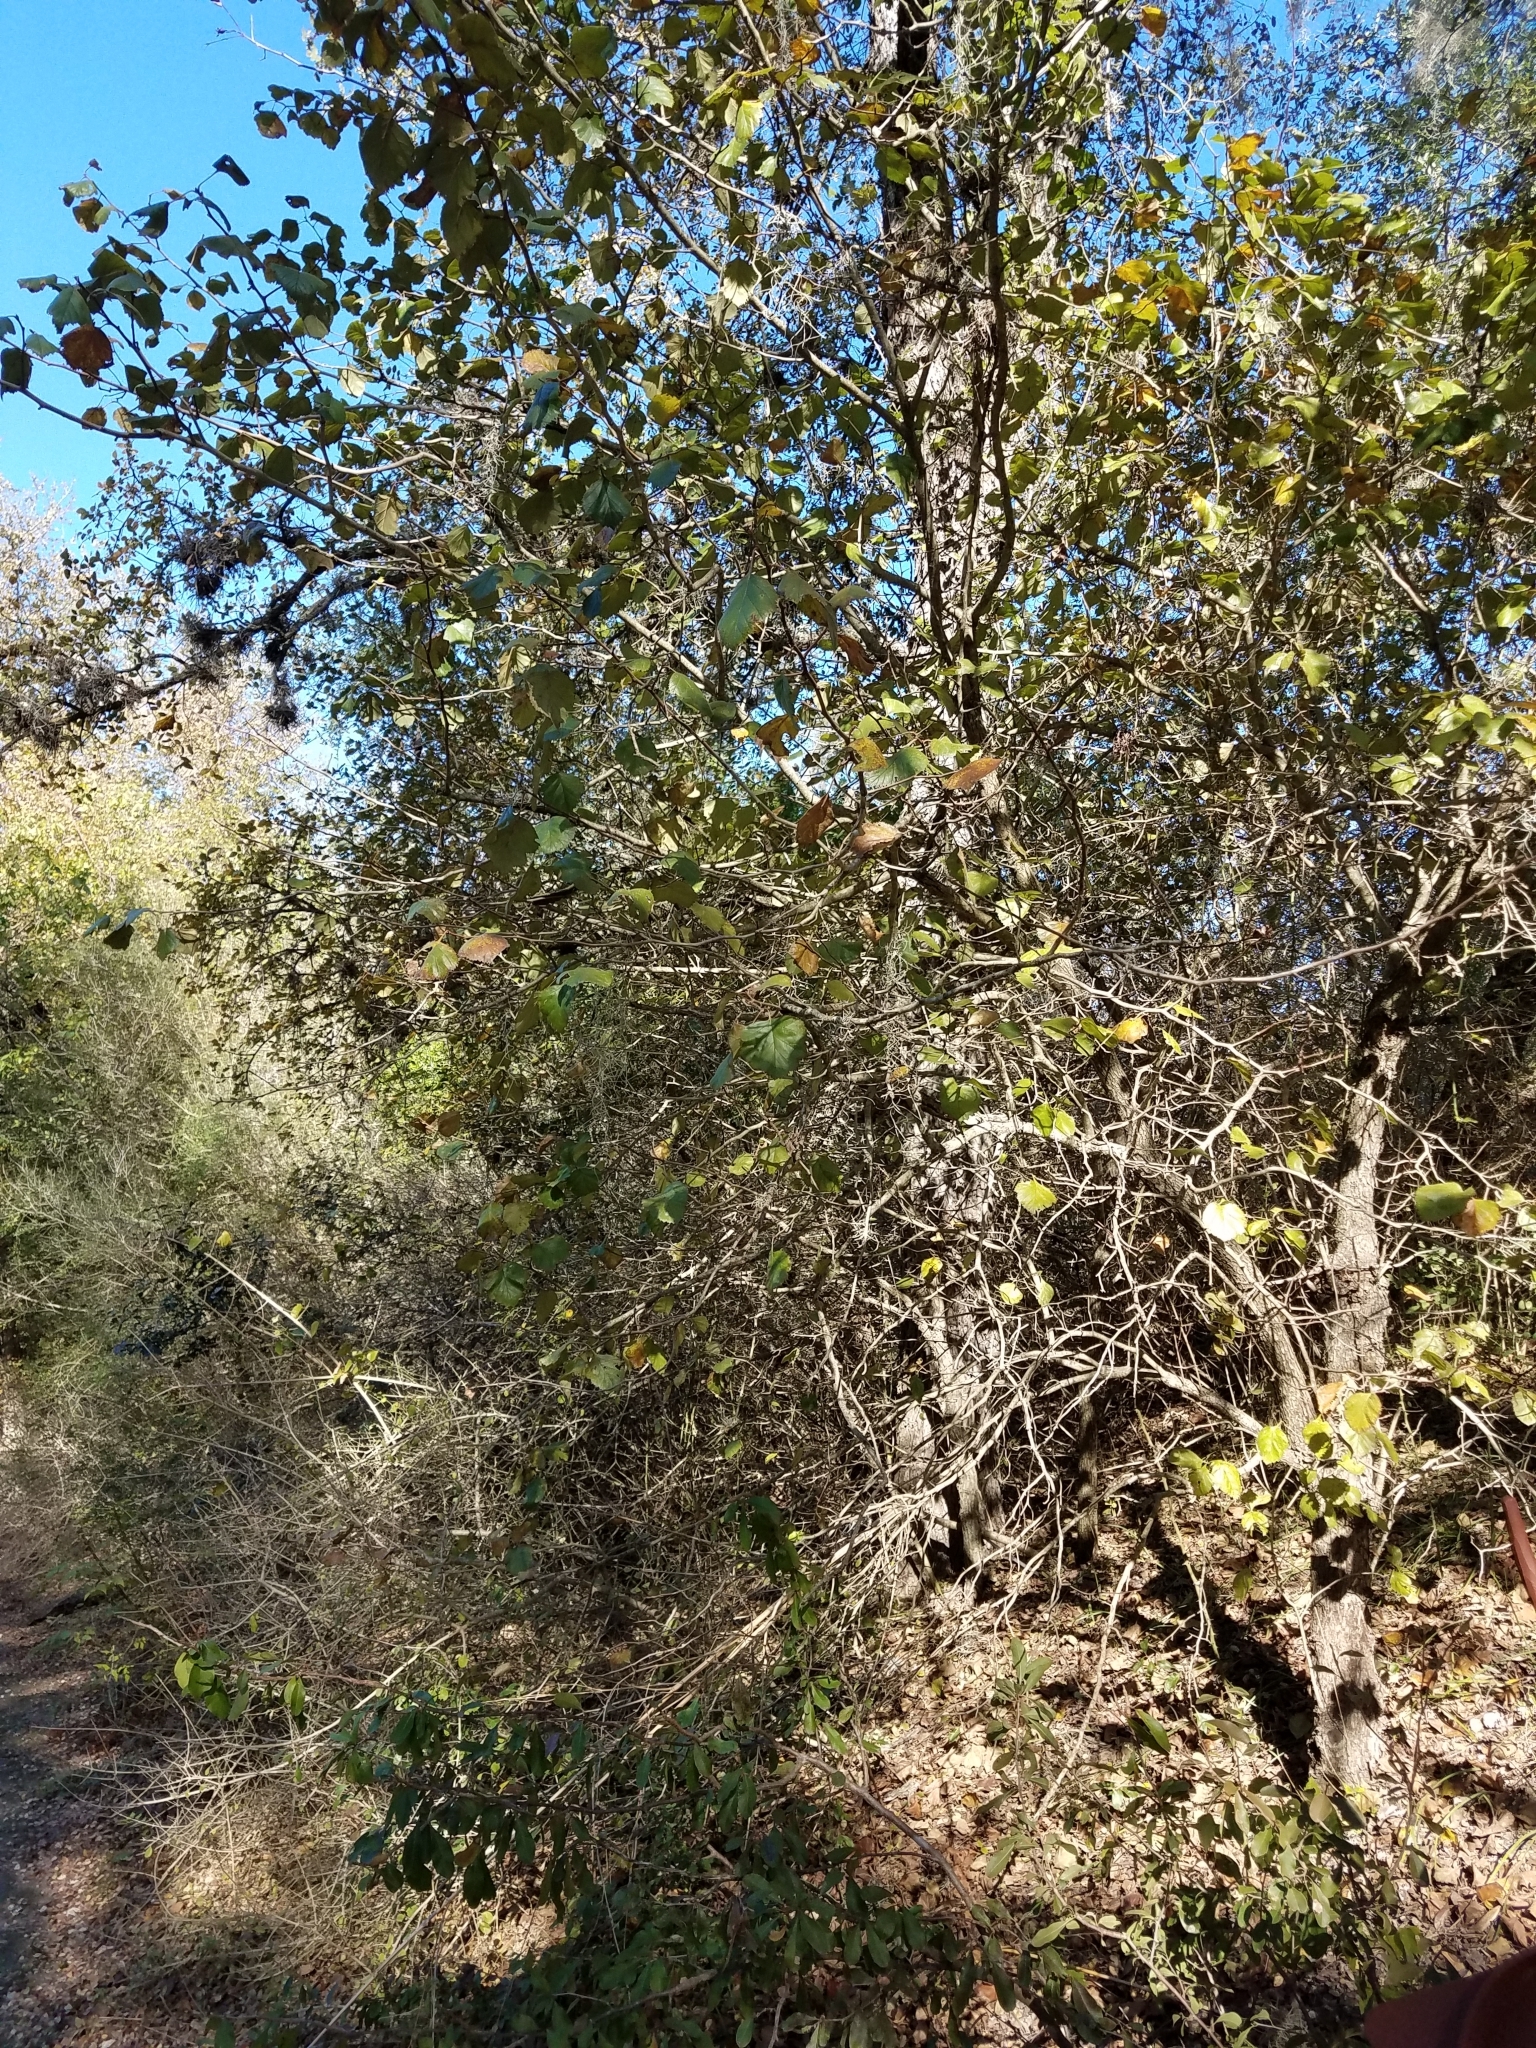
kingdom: Plantae
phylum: Tracheophyta
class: Magnoliopsida
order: Rosales
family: Rosaceae
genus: Crataegus
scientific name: Crataegus mollis
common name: Downy hawthorn
